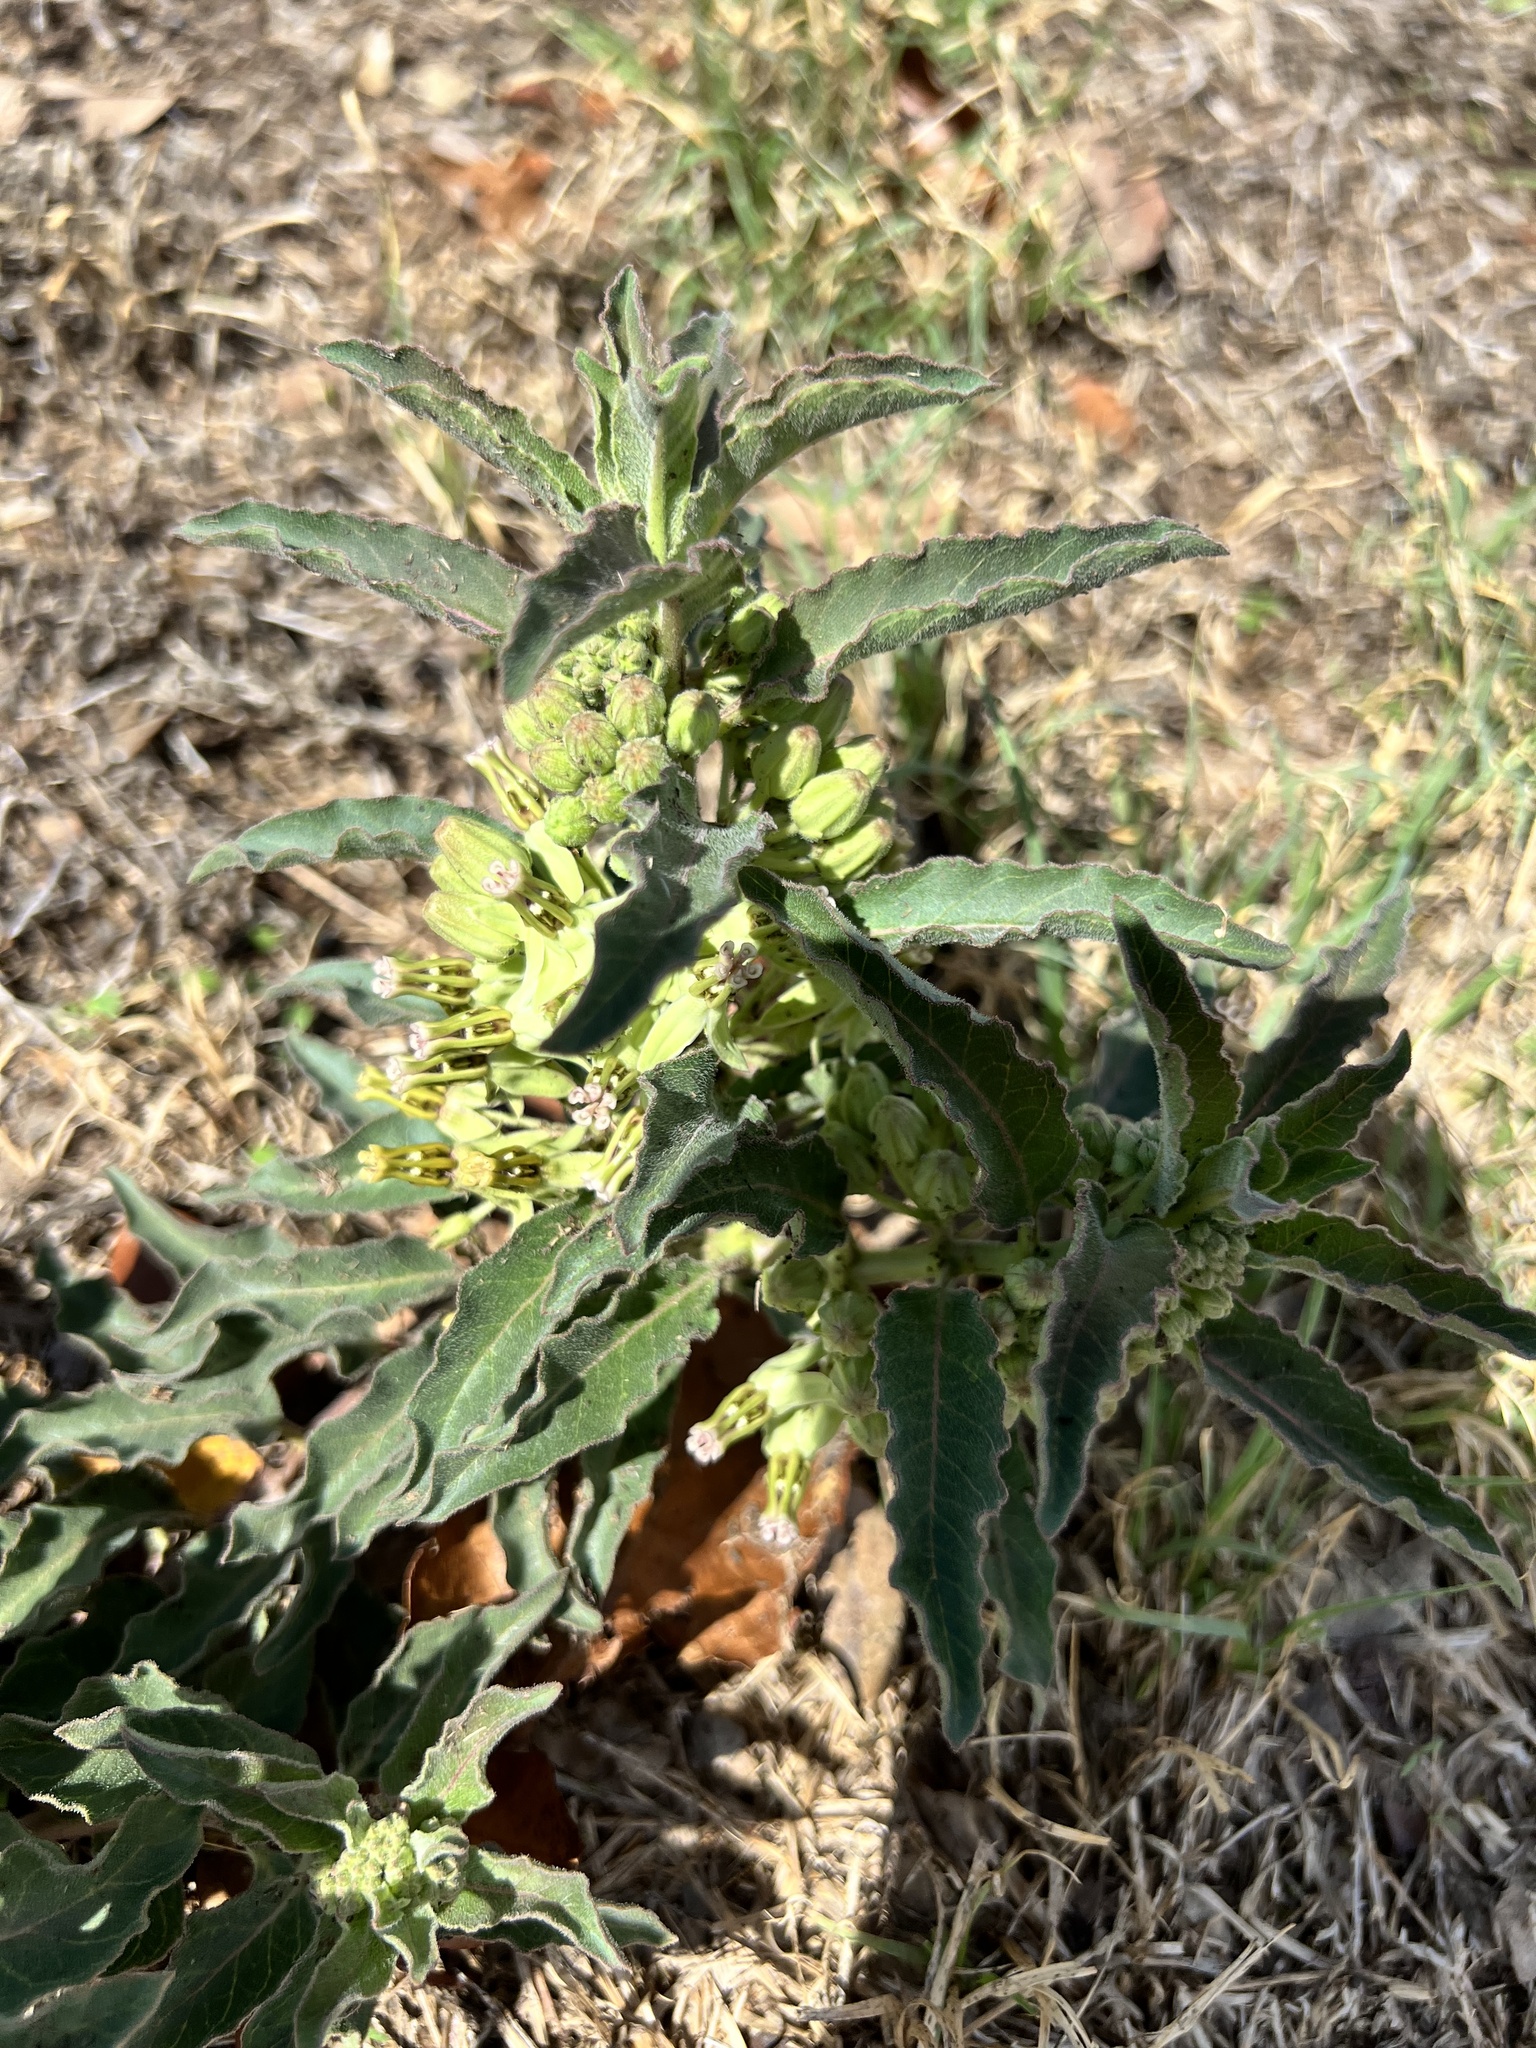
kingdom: Plantae
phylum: Tracheophyta
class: Magnoliopsida
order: Gentianales
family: Apocynaceae
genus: Asclepias
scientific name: Asclepias oenotheroides
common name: Zizotes milkweed
